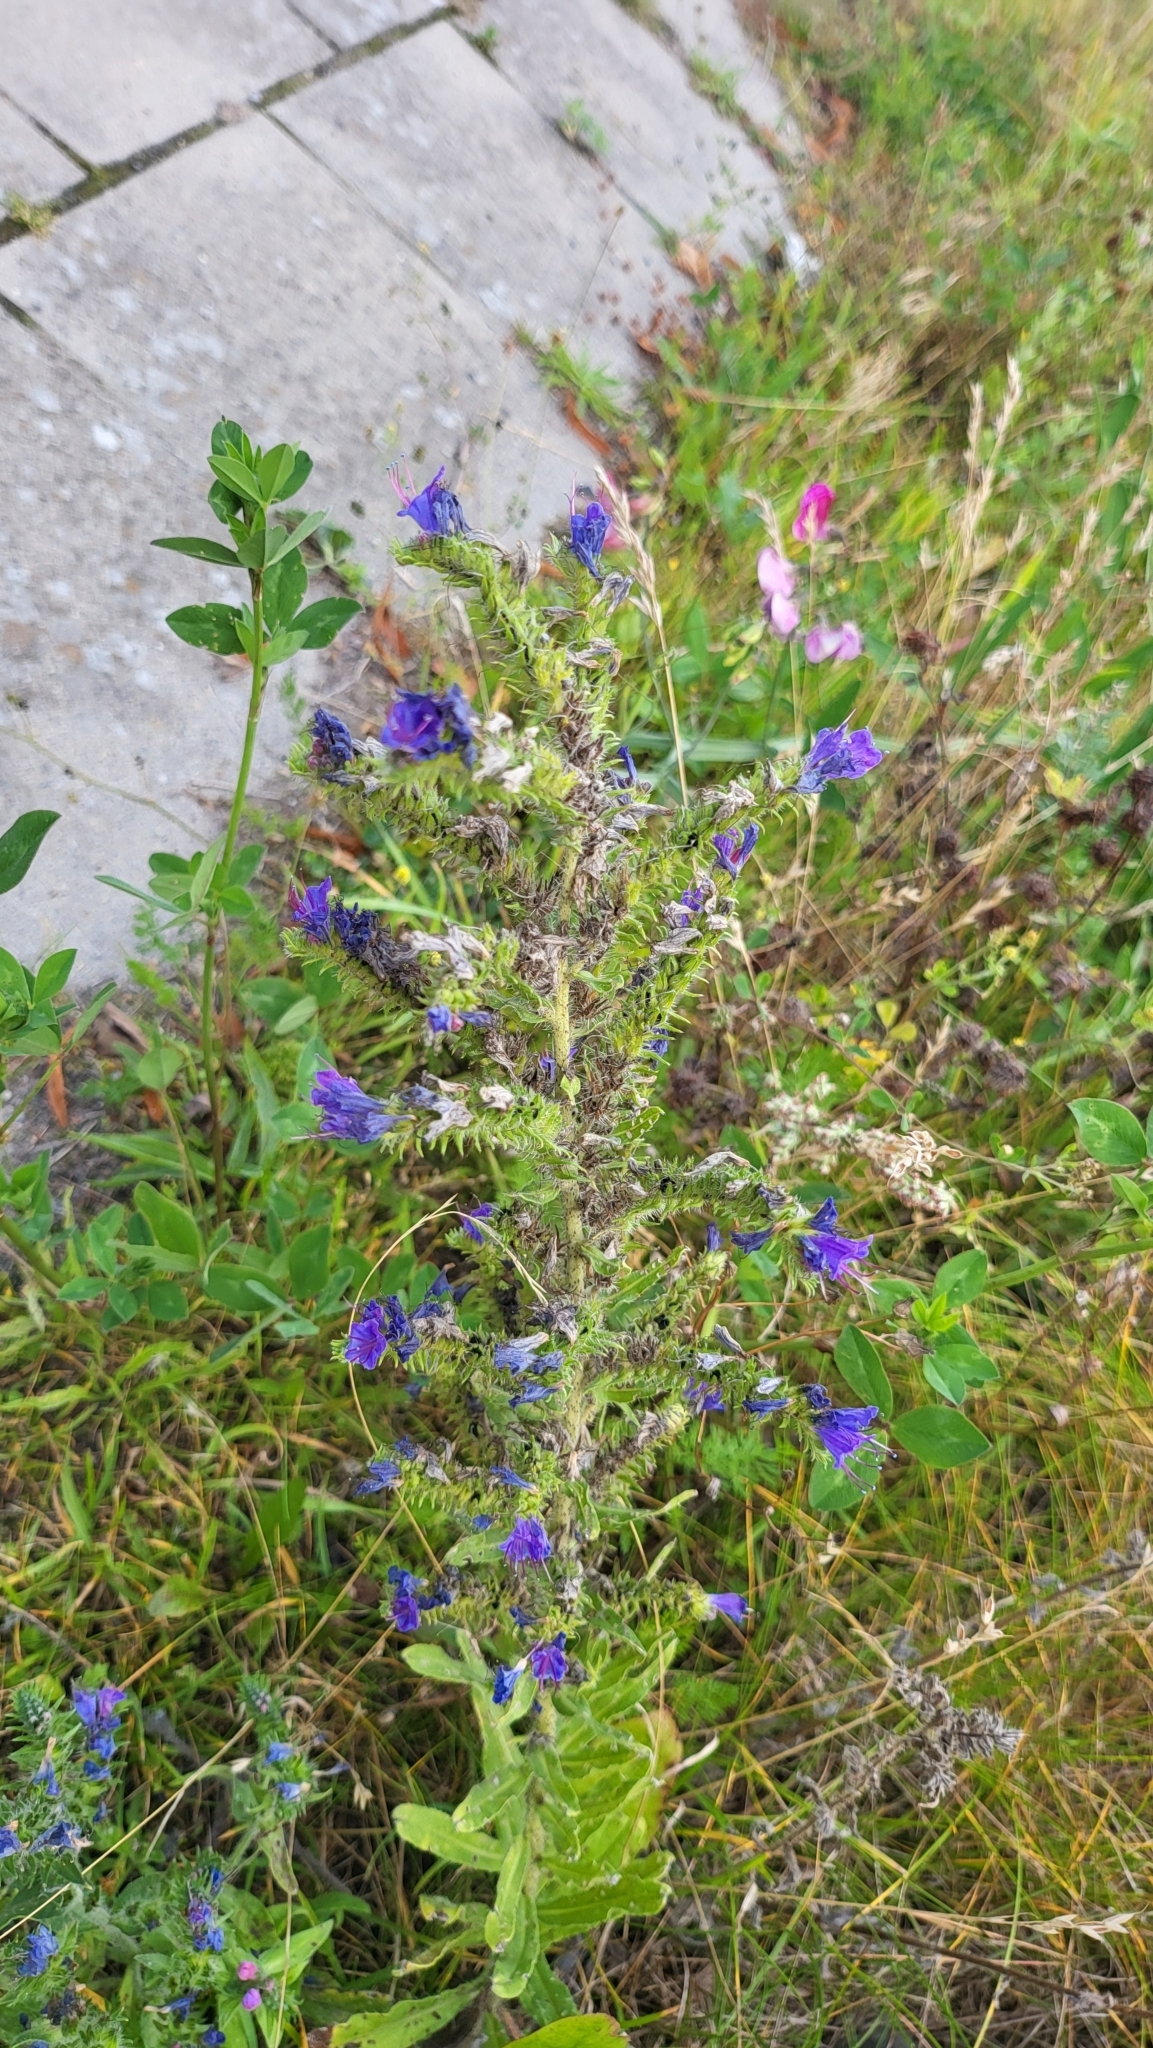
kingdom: Plantae
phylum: Tracheophyta
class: Magnoliopsida
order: Boraginales
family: Boraginaceae
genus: Echium
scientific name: Echium vulgare
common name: Common viper's bugloss
